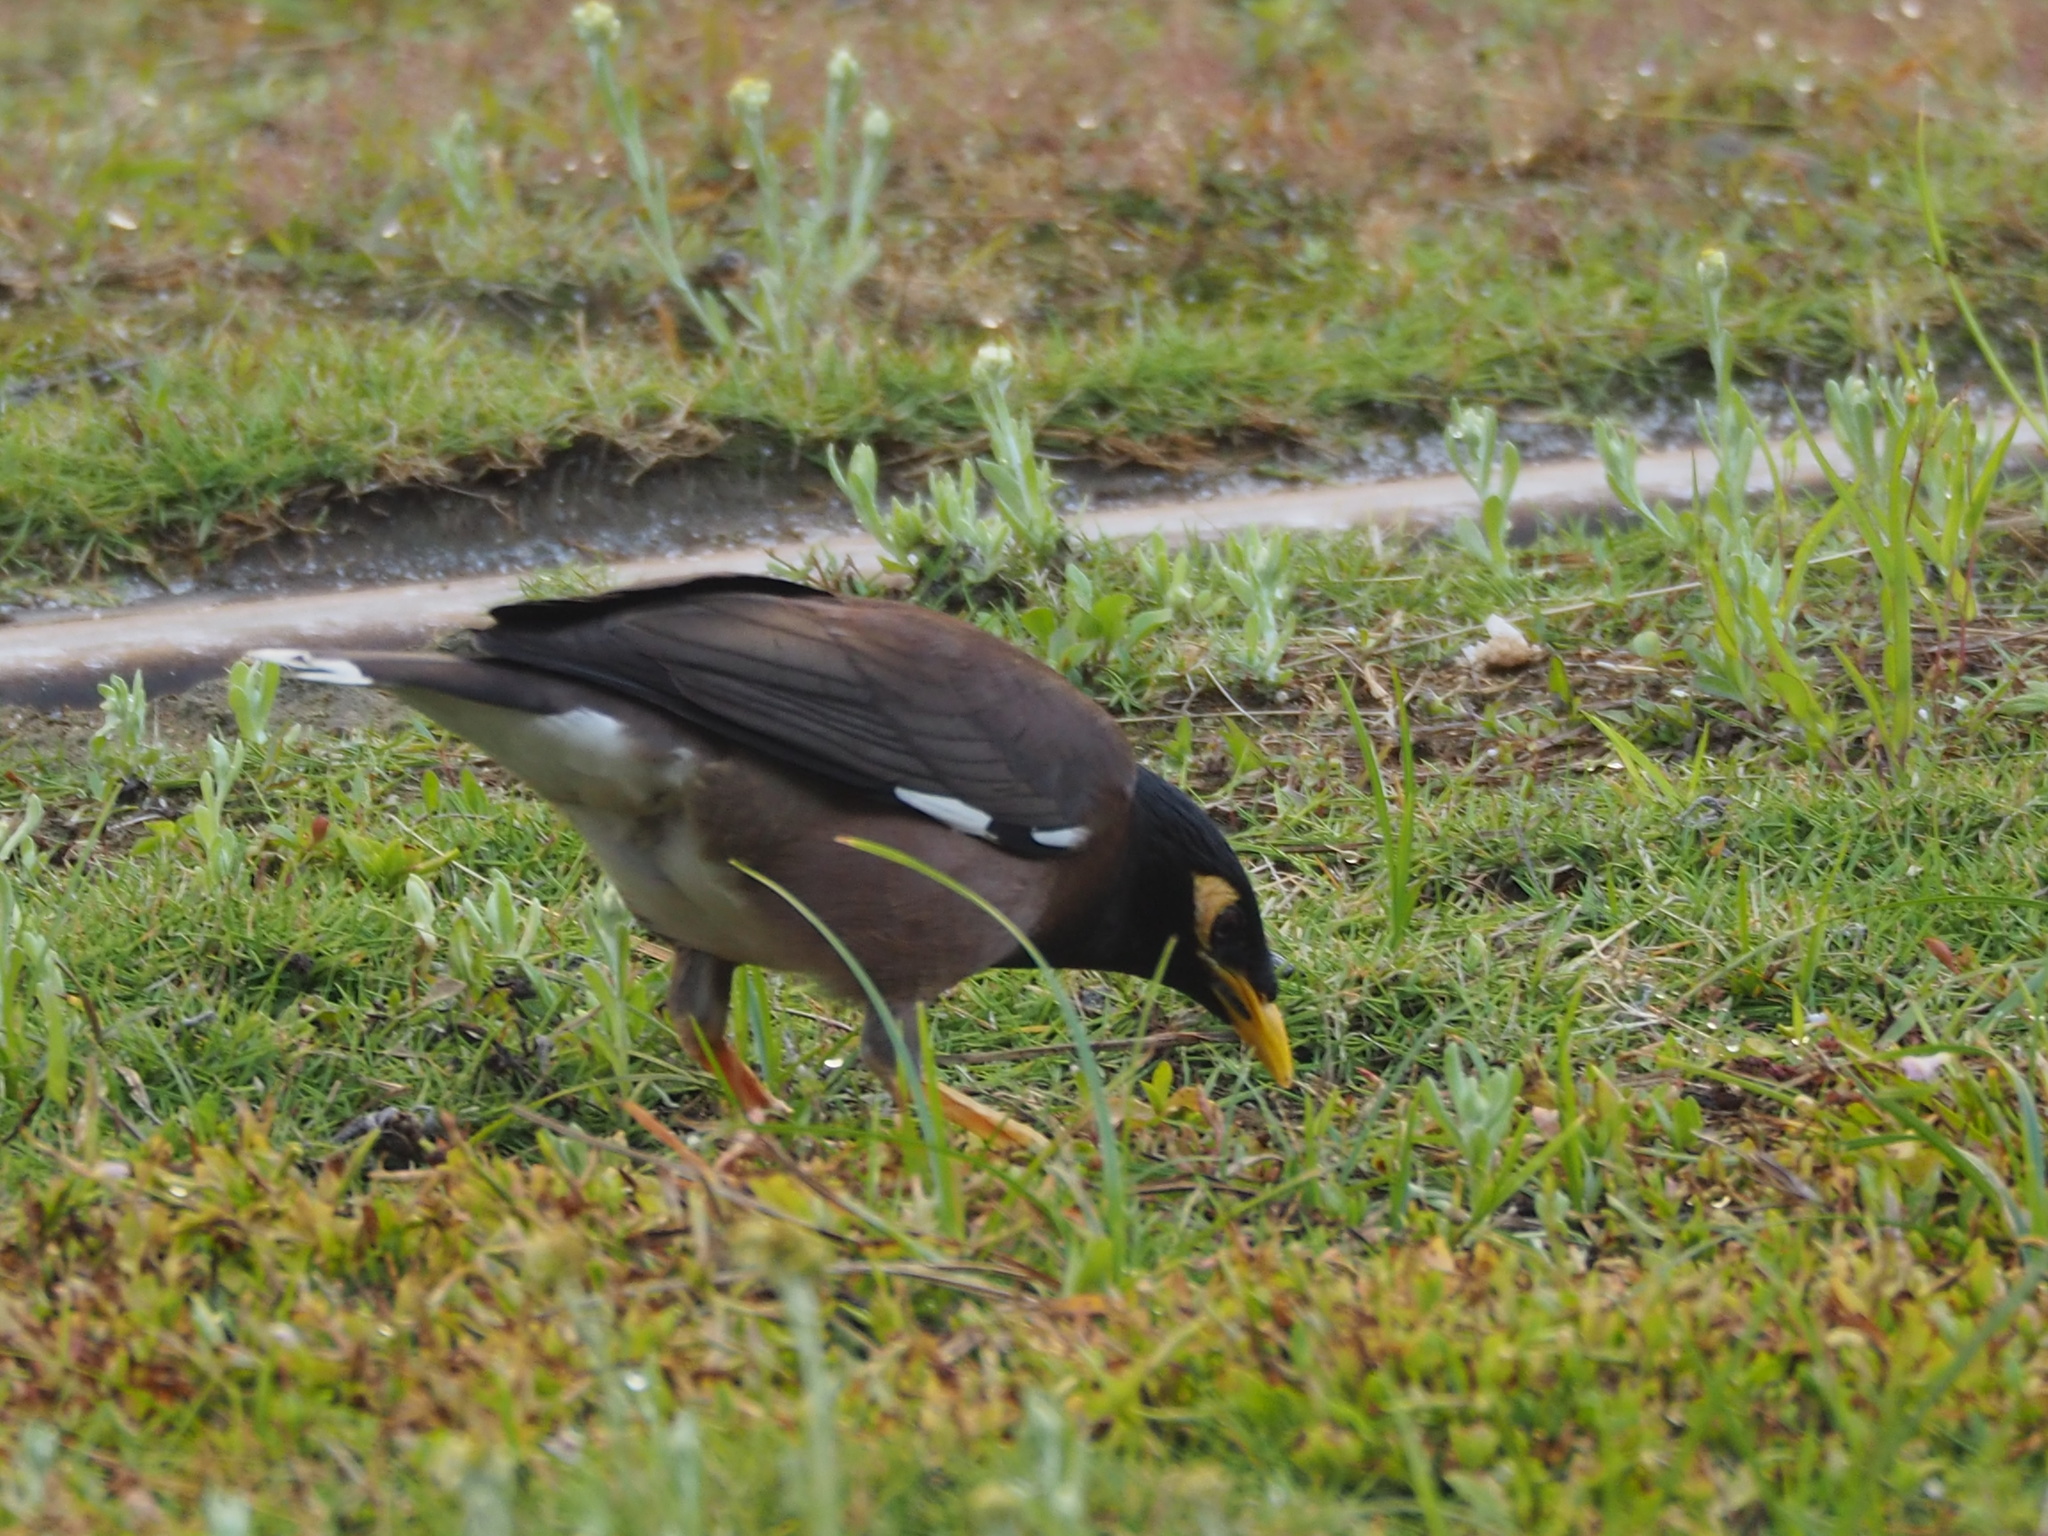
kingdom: Animalia
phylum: Chordata
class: Aves
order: Passeriformes
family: Sturnidae
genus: Acridotheres
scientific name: Acridotheres tristis
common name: Common myna
